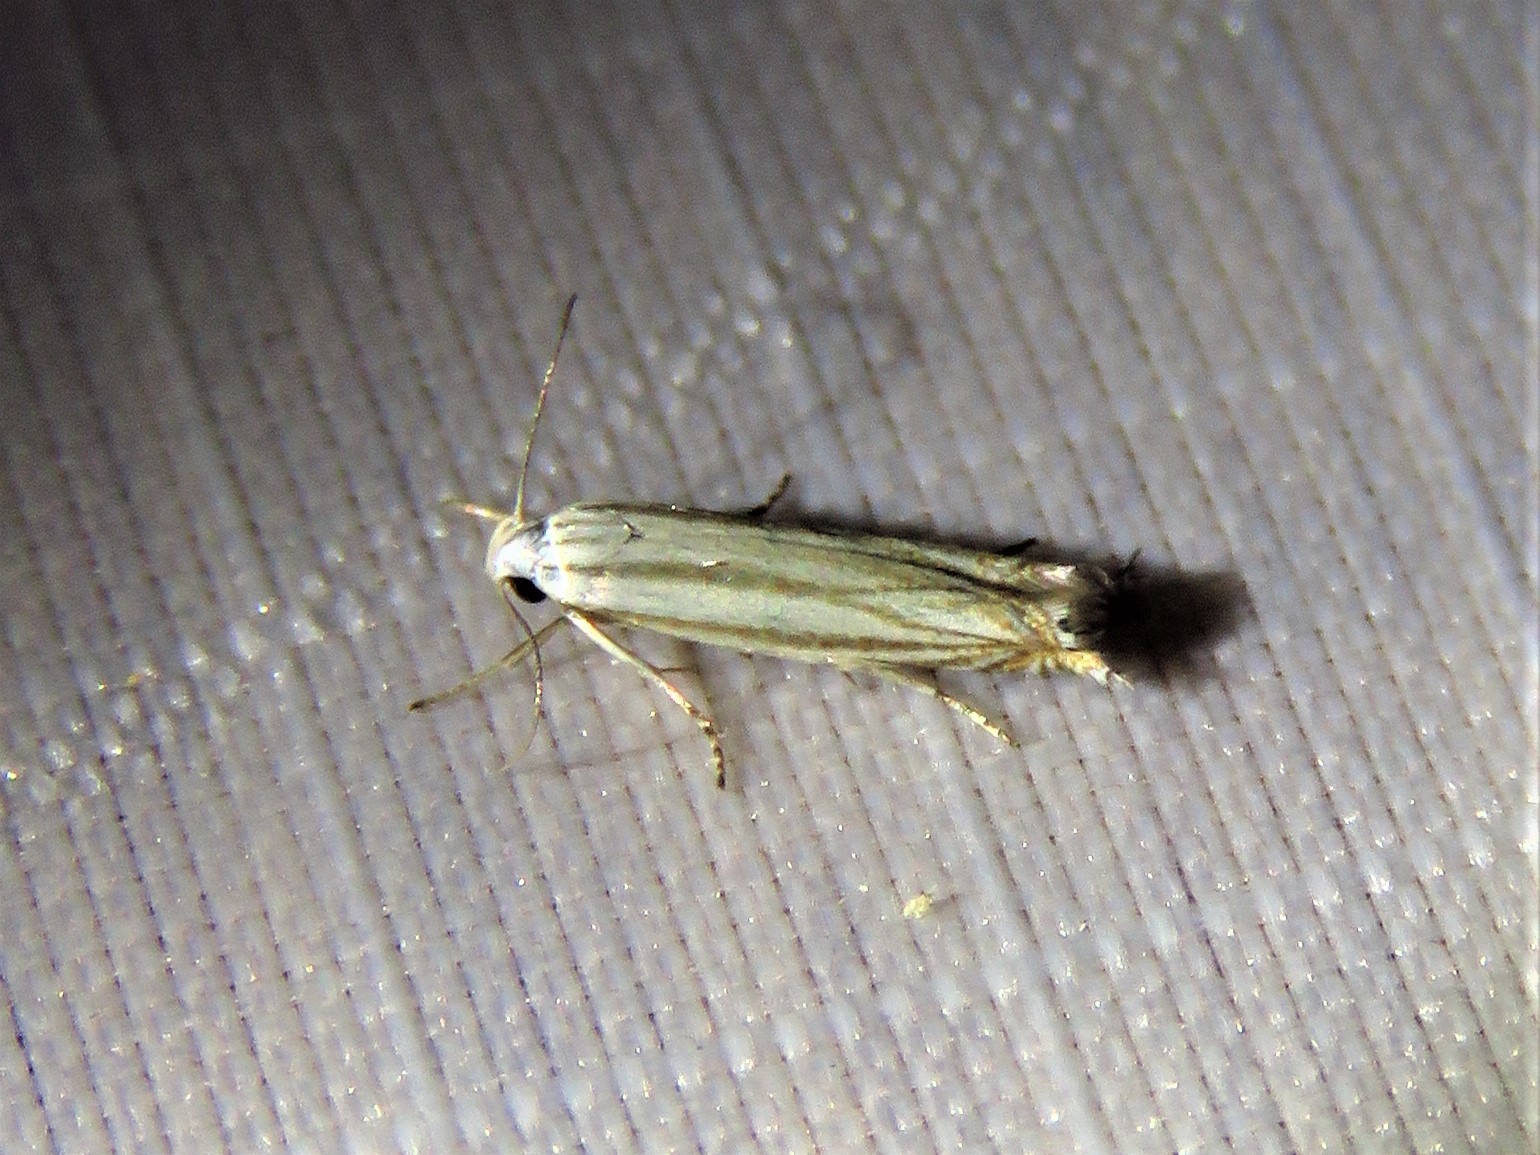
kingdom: Animalia
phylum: Arthropoda
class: Insecta
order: Lepidoptera
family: Gelechiidae
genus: Polyhymno
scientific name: Polyhymno luteostrigella
